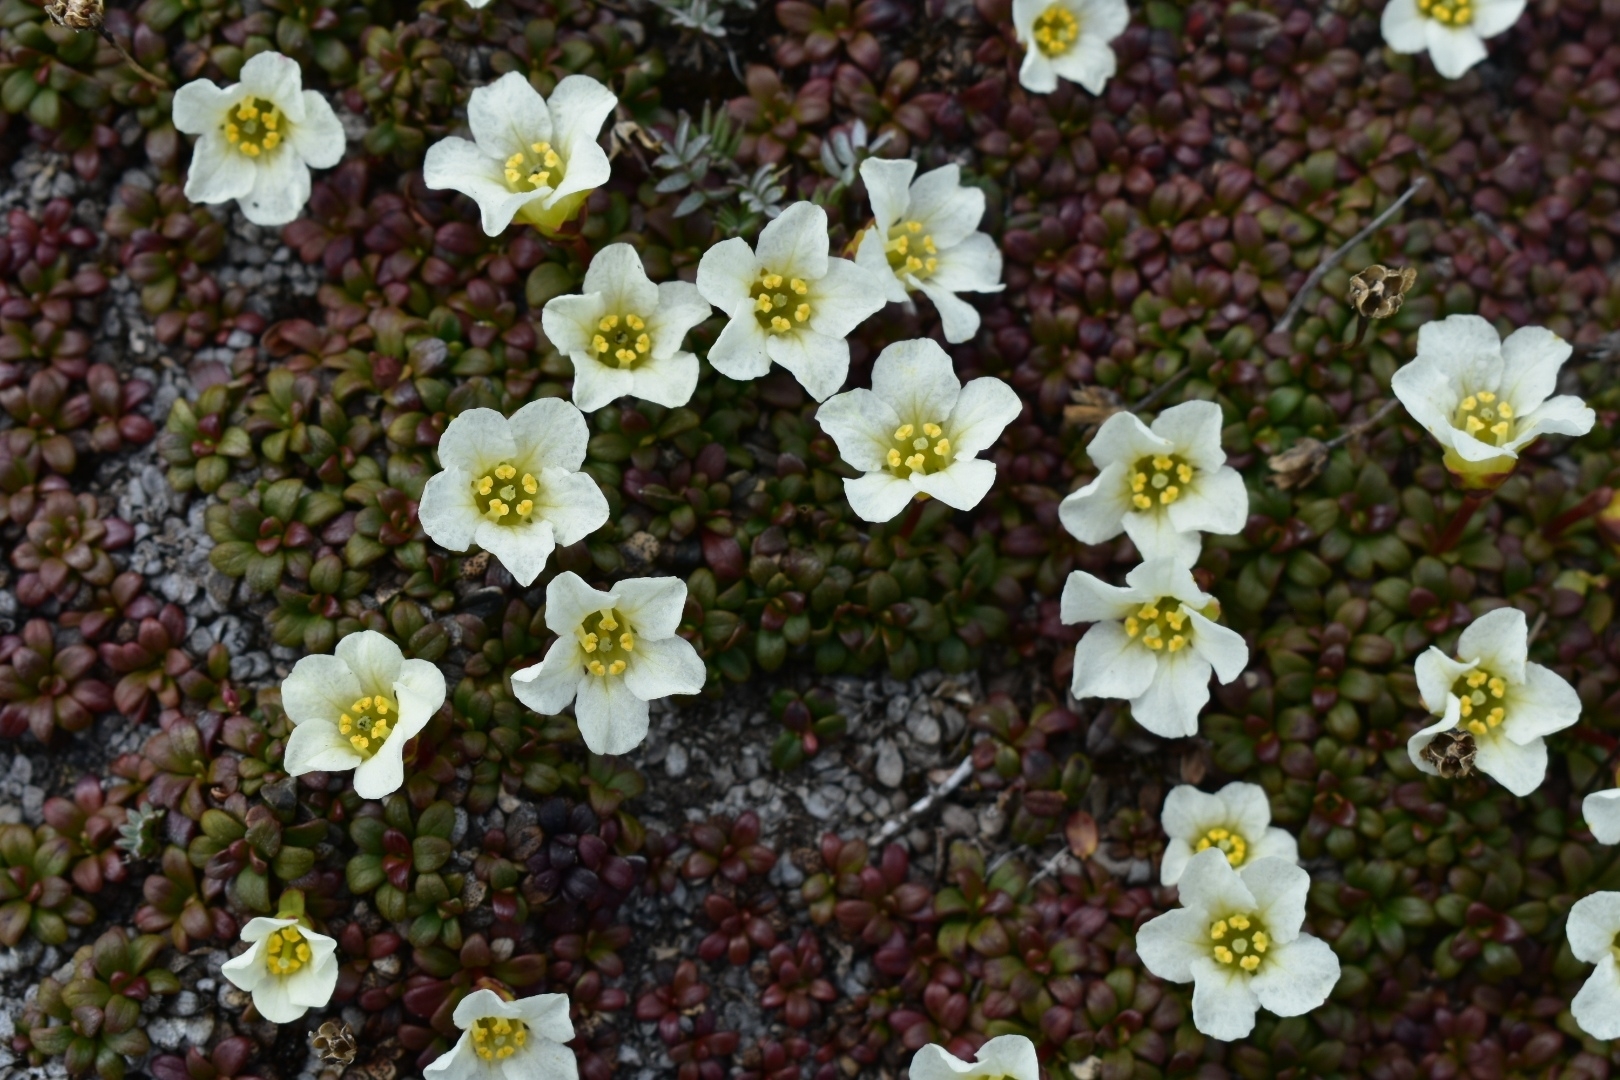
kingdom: Plantae
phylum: Tracheophyta
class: Magnoliopsida
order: Ericales
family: Diapensiaceae
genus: Diapensia
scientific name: Diapensia obovata
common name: Alaska diapensia
